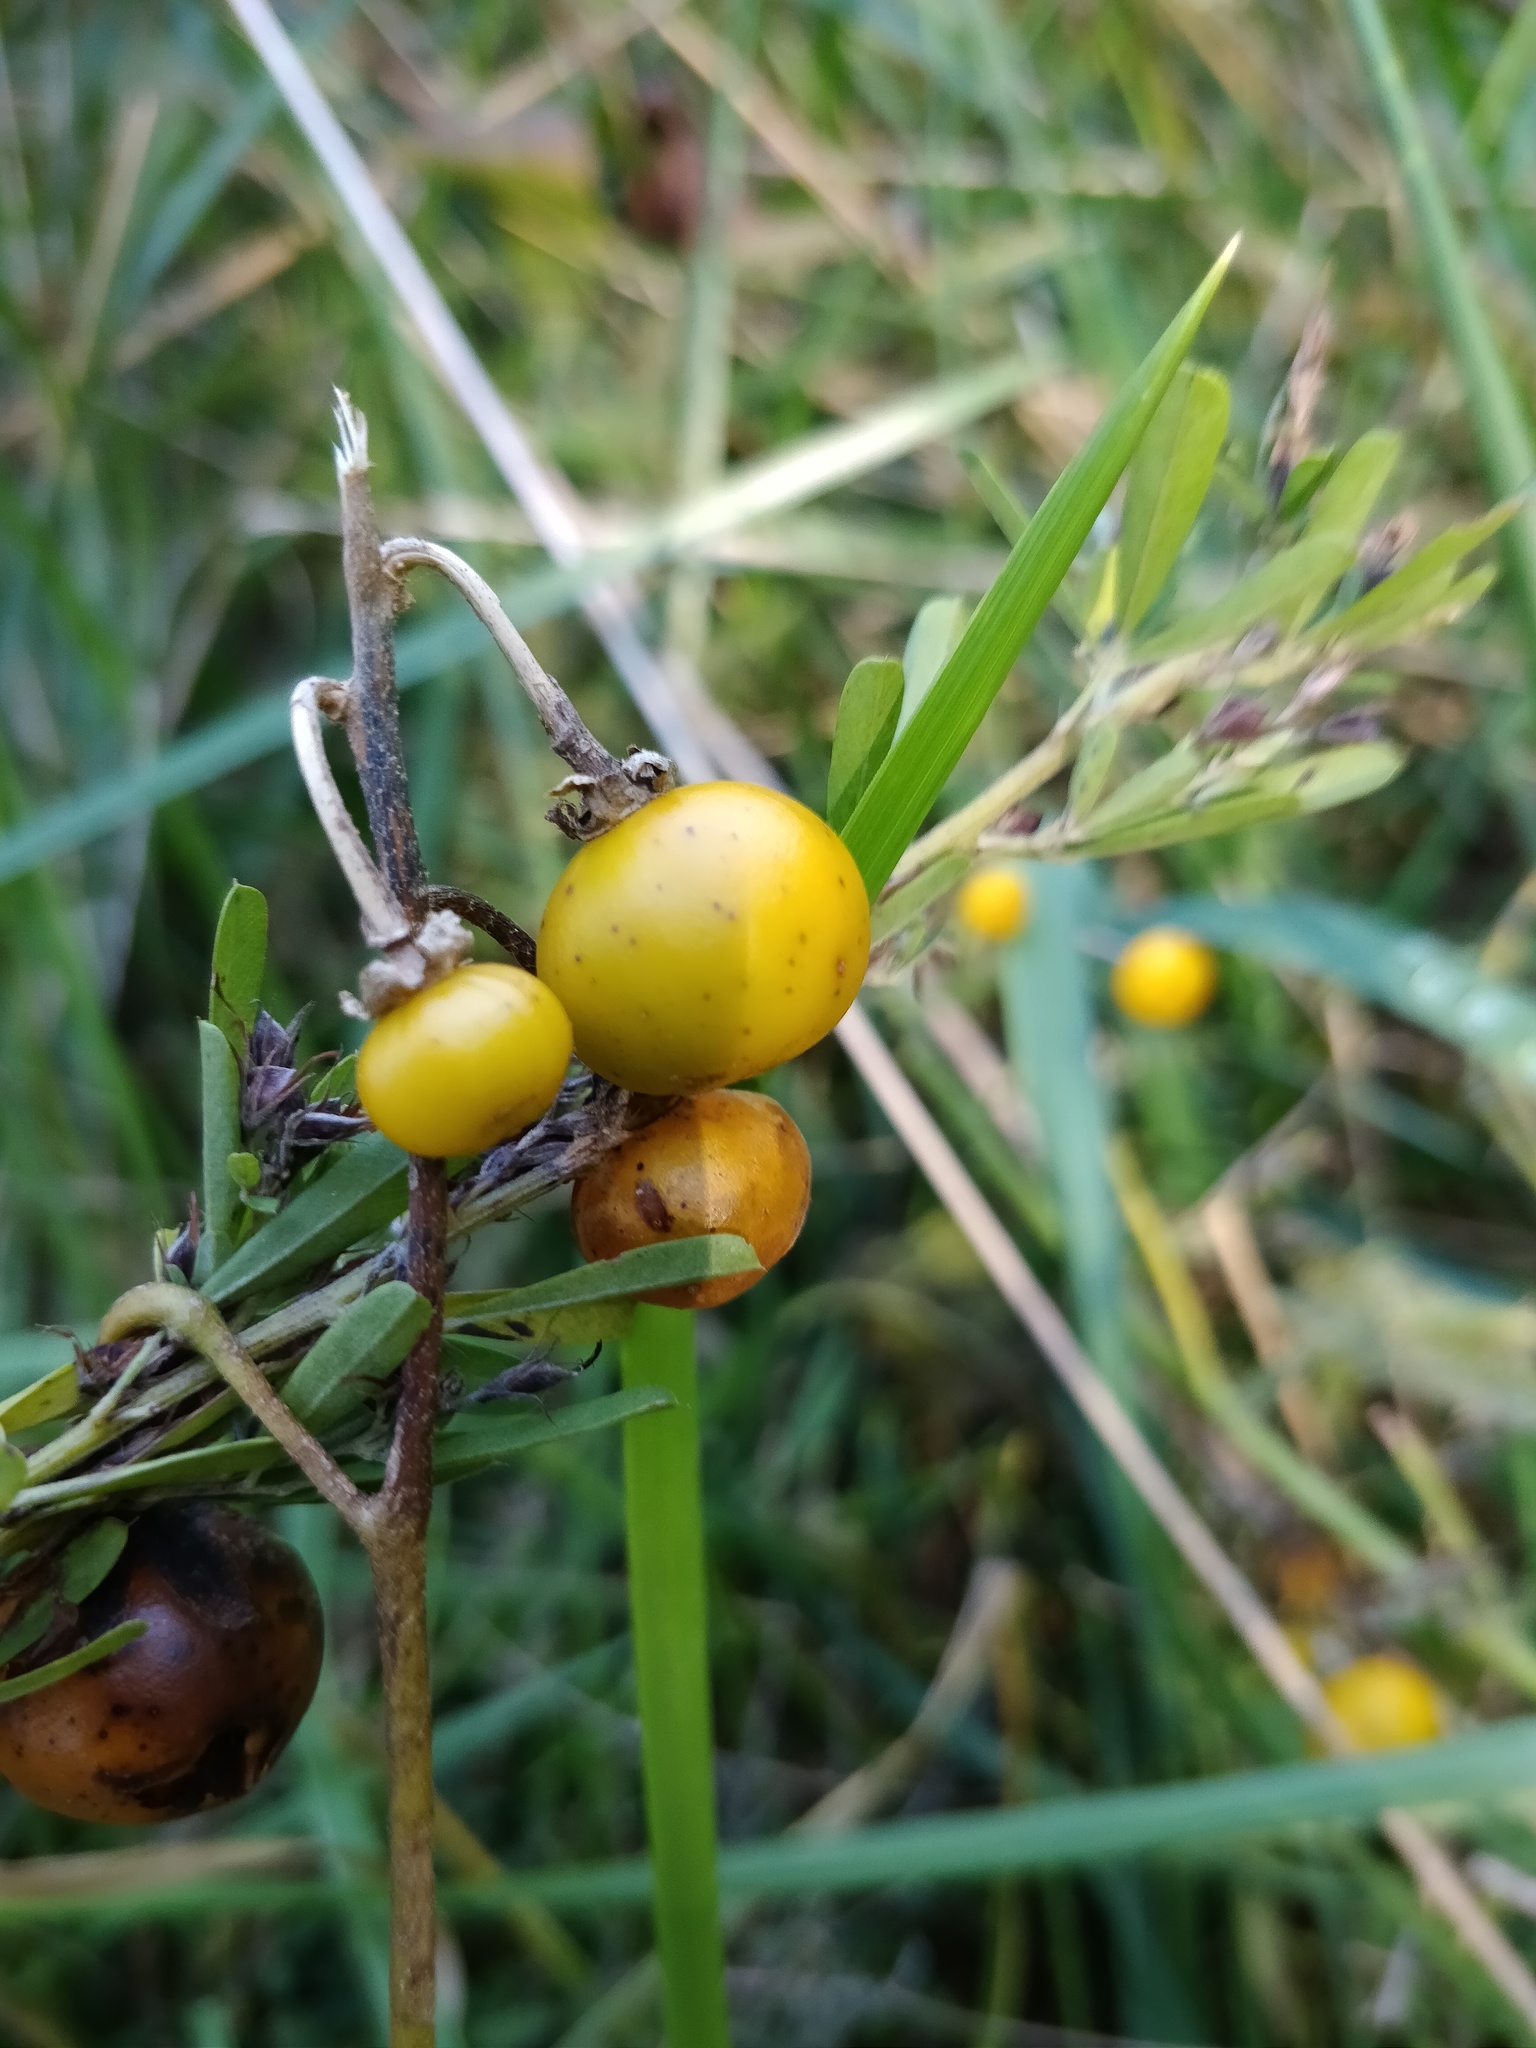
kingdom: Plantae
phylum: Tracheophyta
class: Magnoliopsida
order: Solanales
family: Solanaceae
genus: Solanum
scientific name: Solanum carolinense
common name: Horse-nettle
